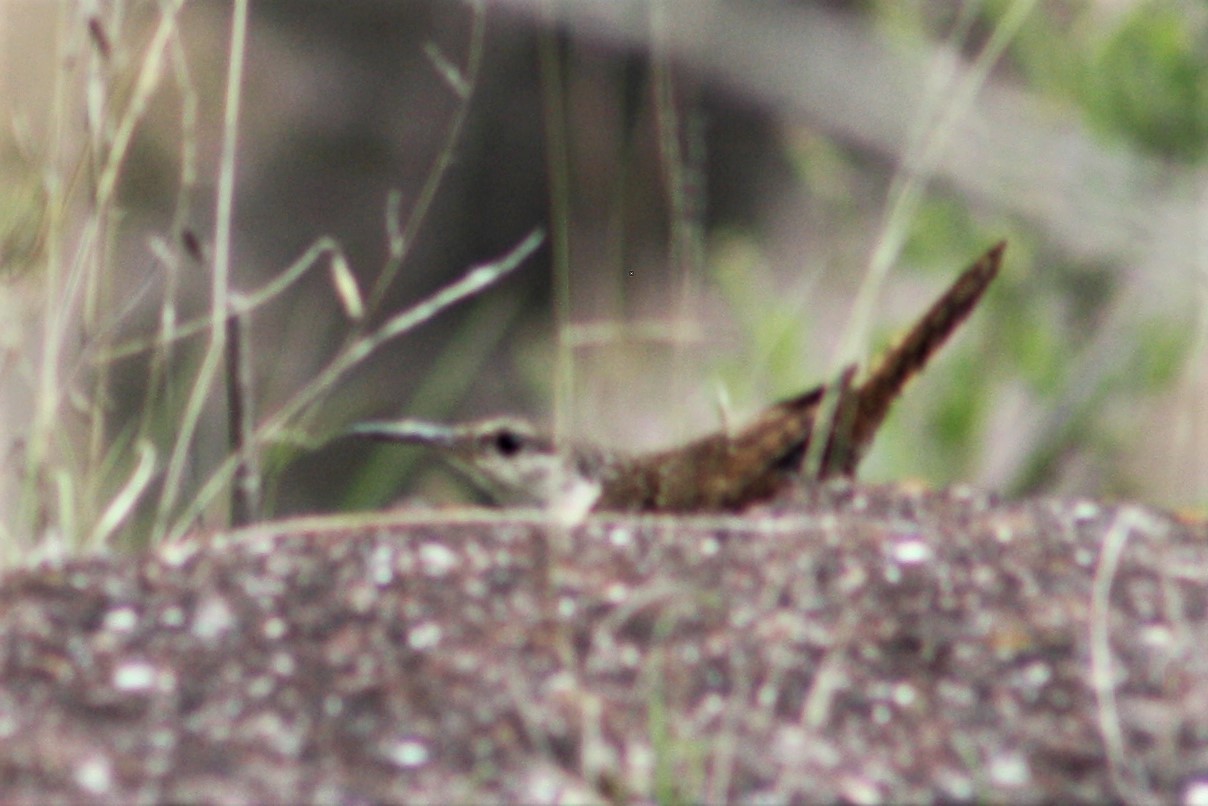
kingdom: Animalia
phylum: Chordata
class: Aves
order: Passeriformes
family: Troglodytidae
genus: Catherpes
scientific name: Catherpes mexicanus
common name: Canyon wren
